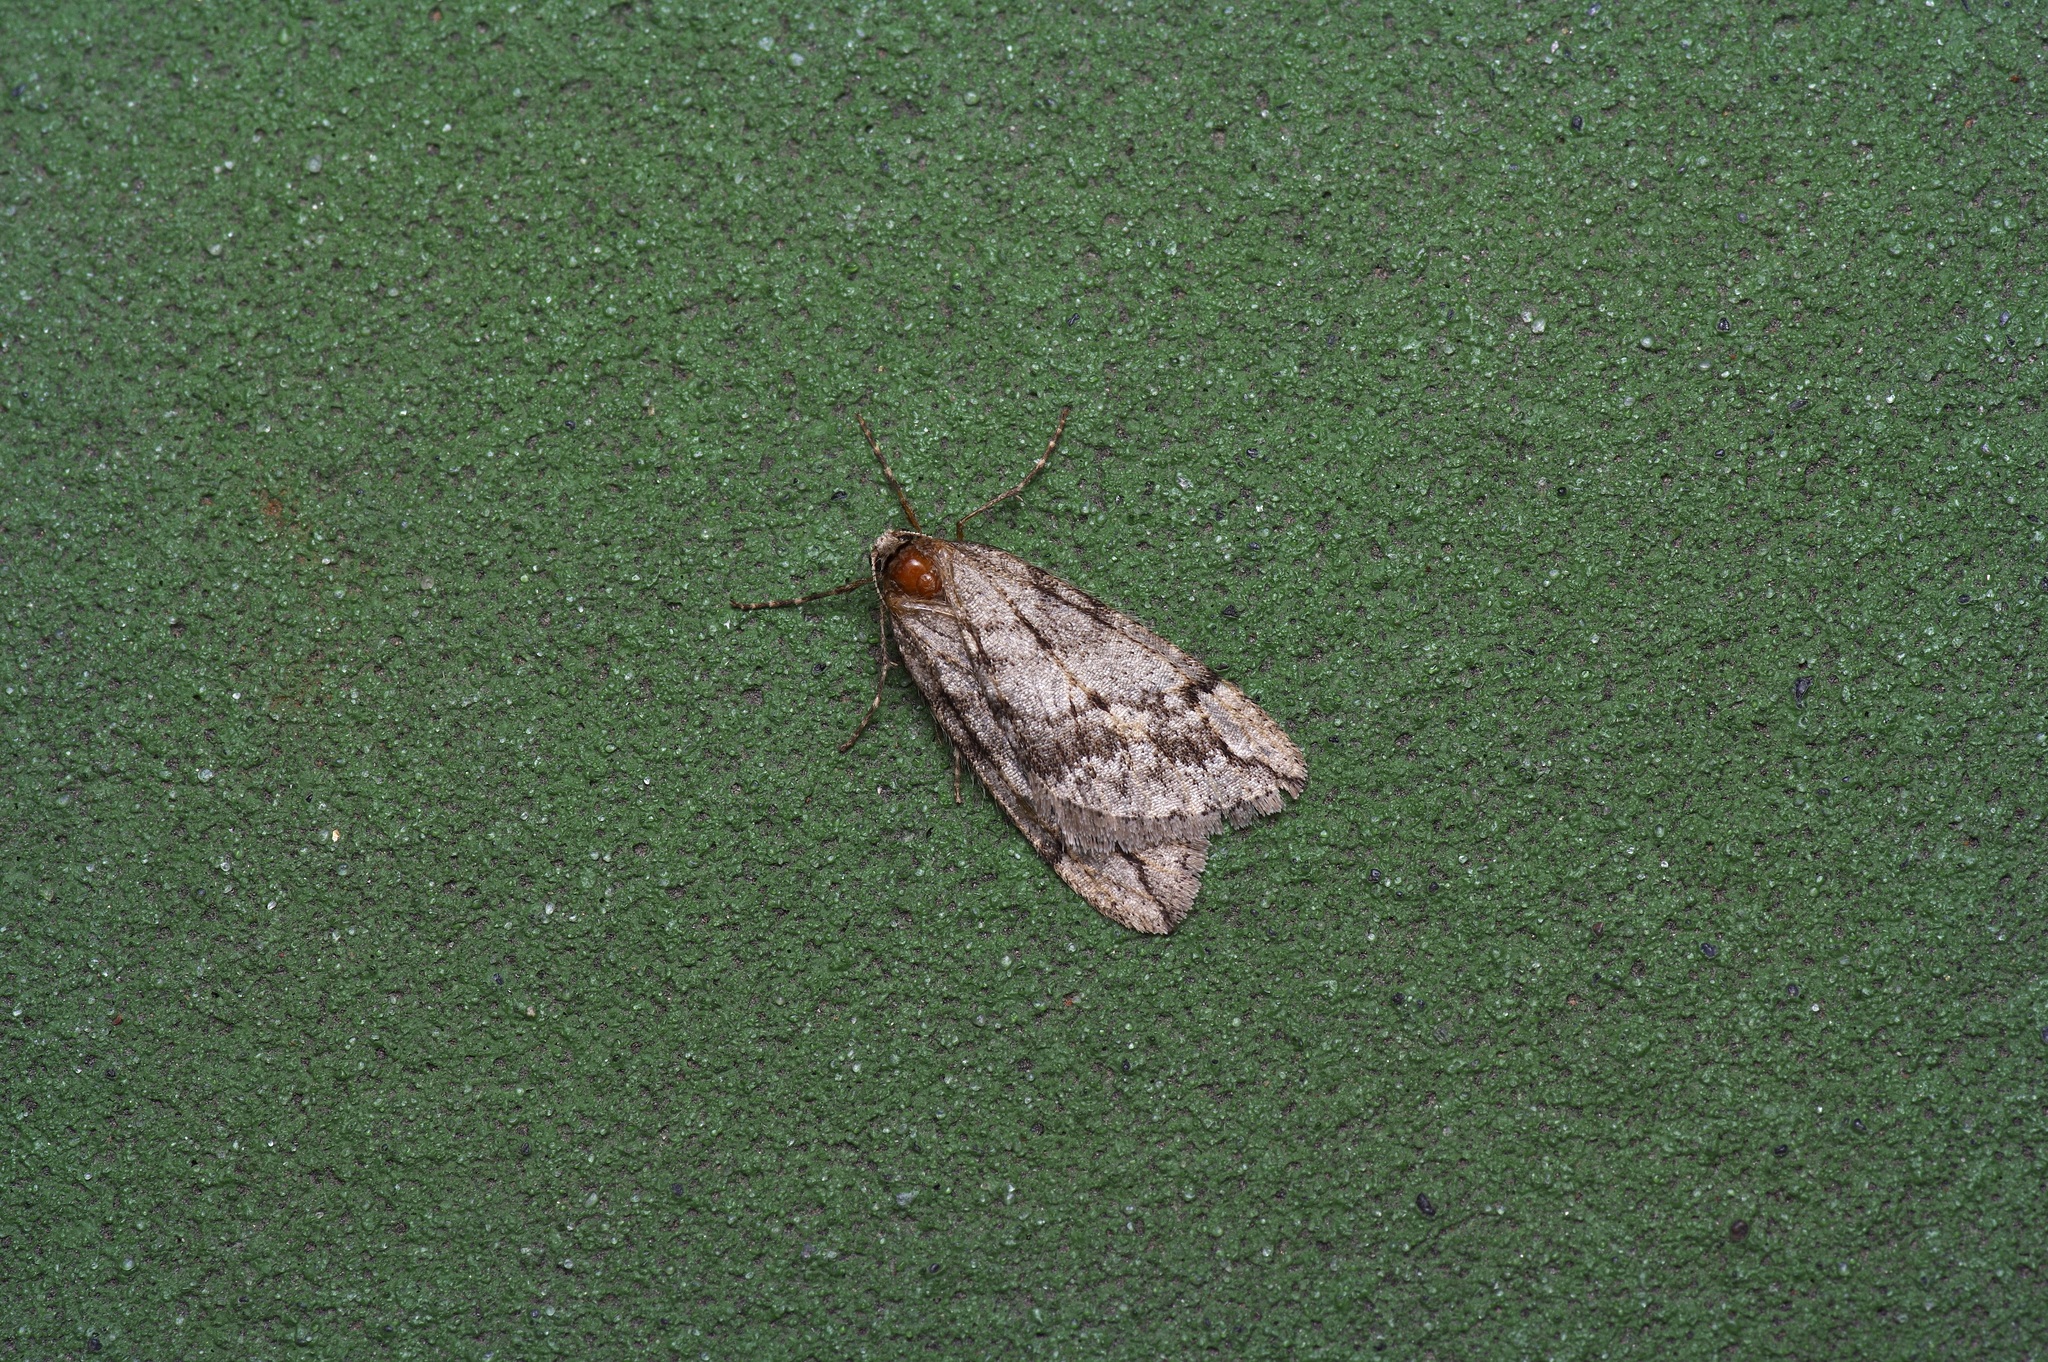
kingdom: Animalia
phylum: Arthropoda
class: Insecta
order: Lepidoptera
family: Geometridae
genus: Paleacrita
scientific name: Paleacrita vernata
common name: Spring cankerworm
